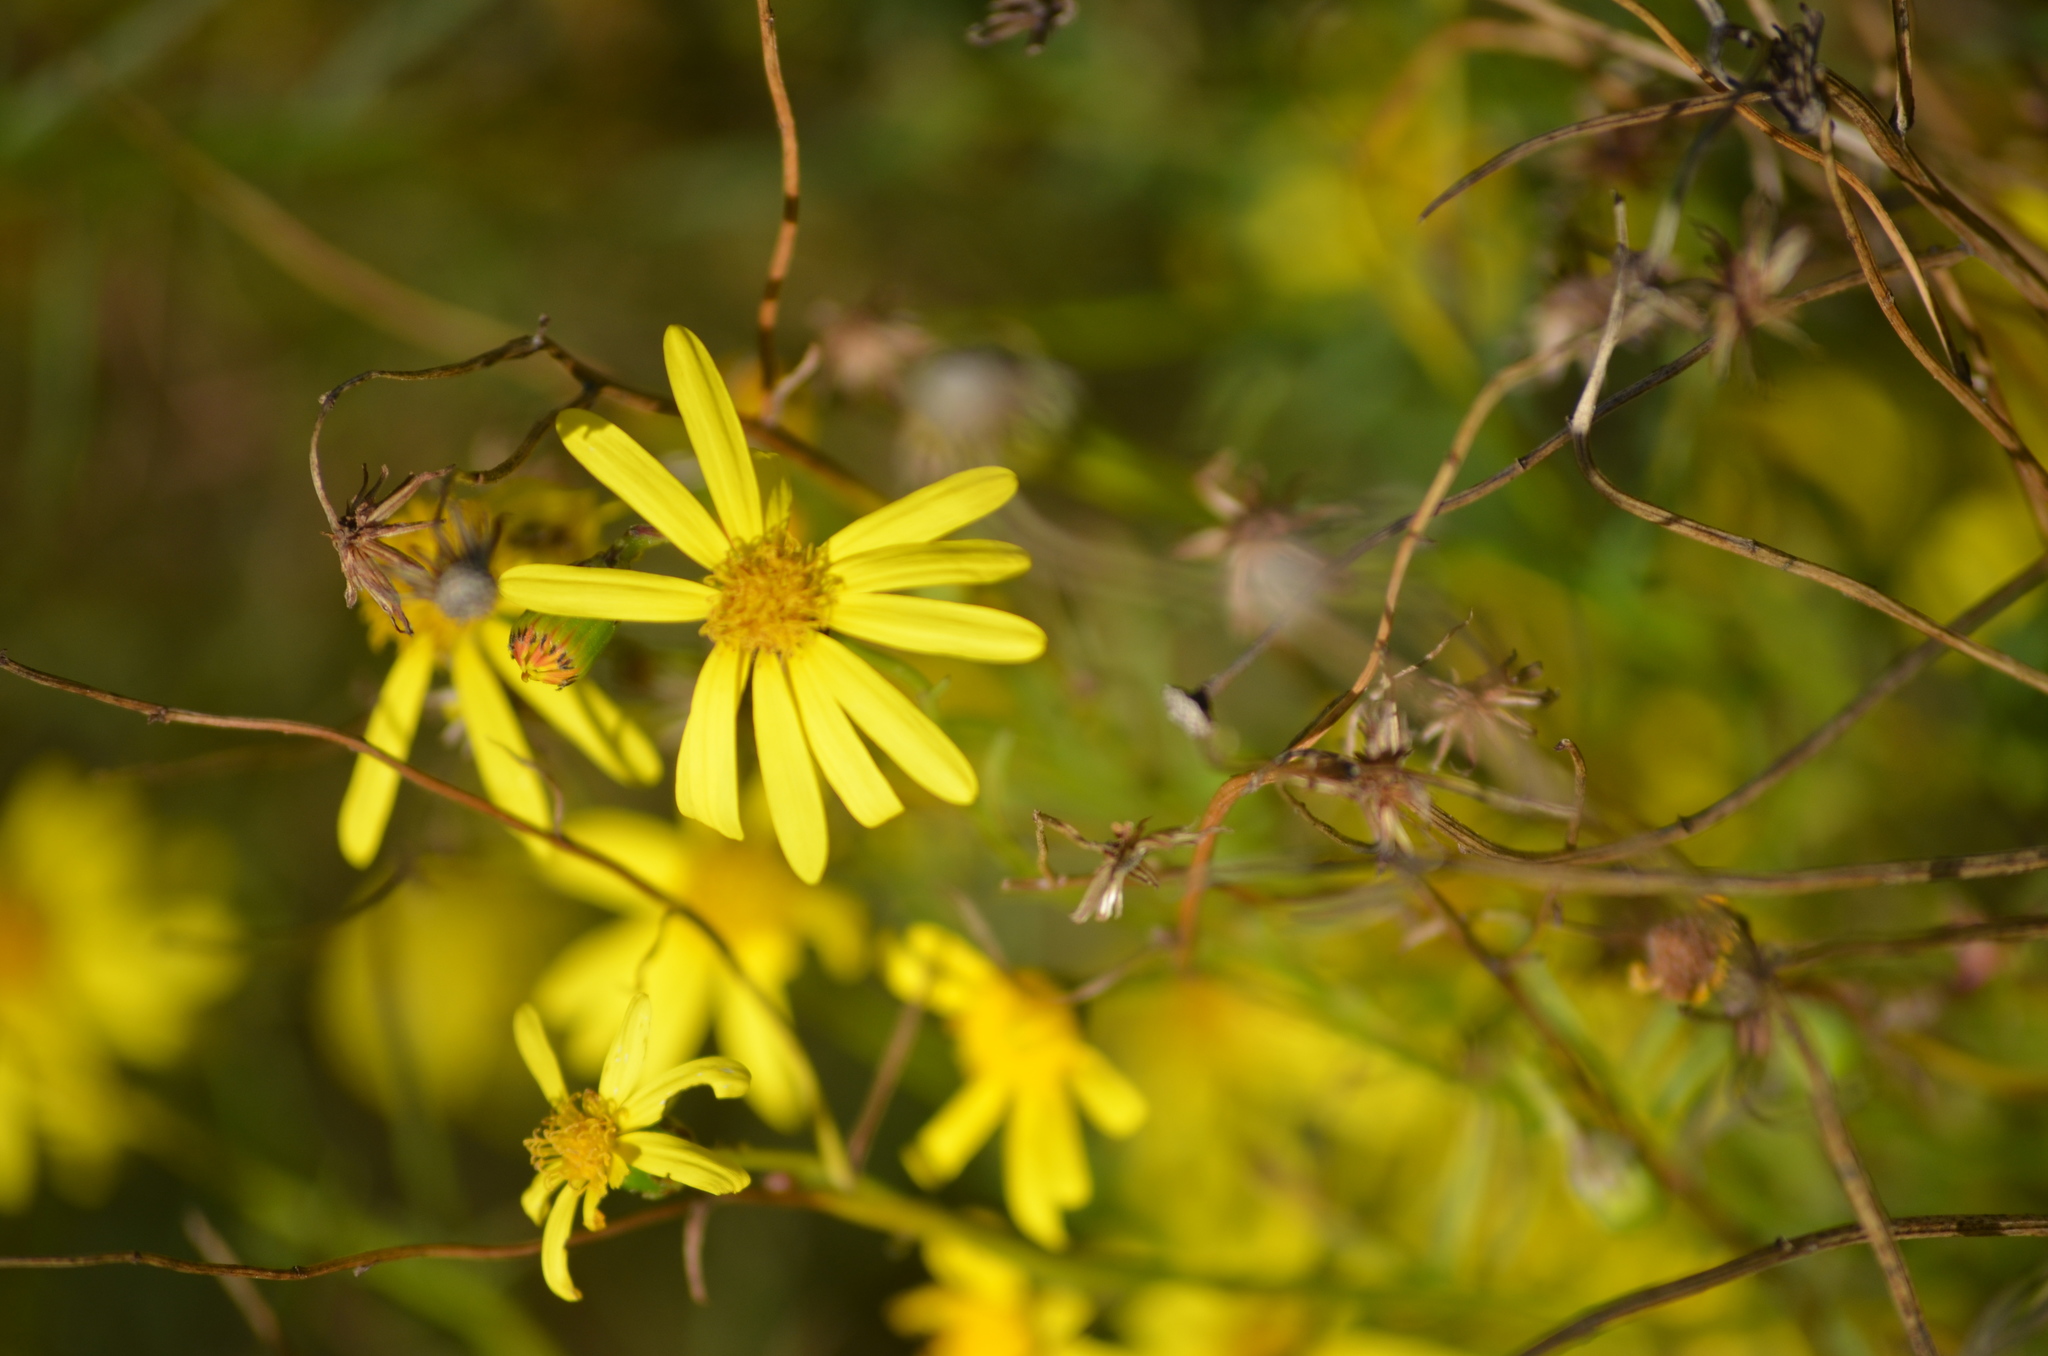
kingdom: Plantae
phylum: Tracheophyta
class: Magnoliopsida
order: Asterales
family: Asteraceae
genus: Senecio
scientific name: Senecio inaequidens
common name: Narrow-leaved ragwort
